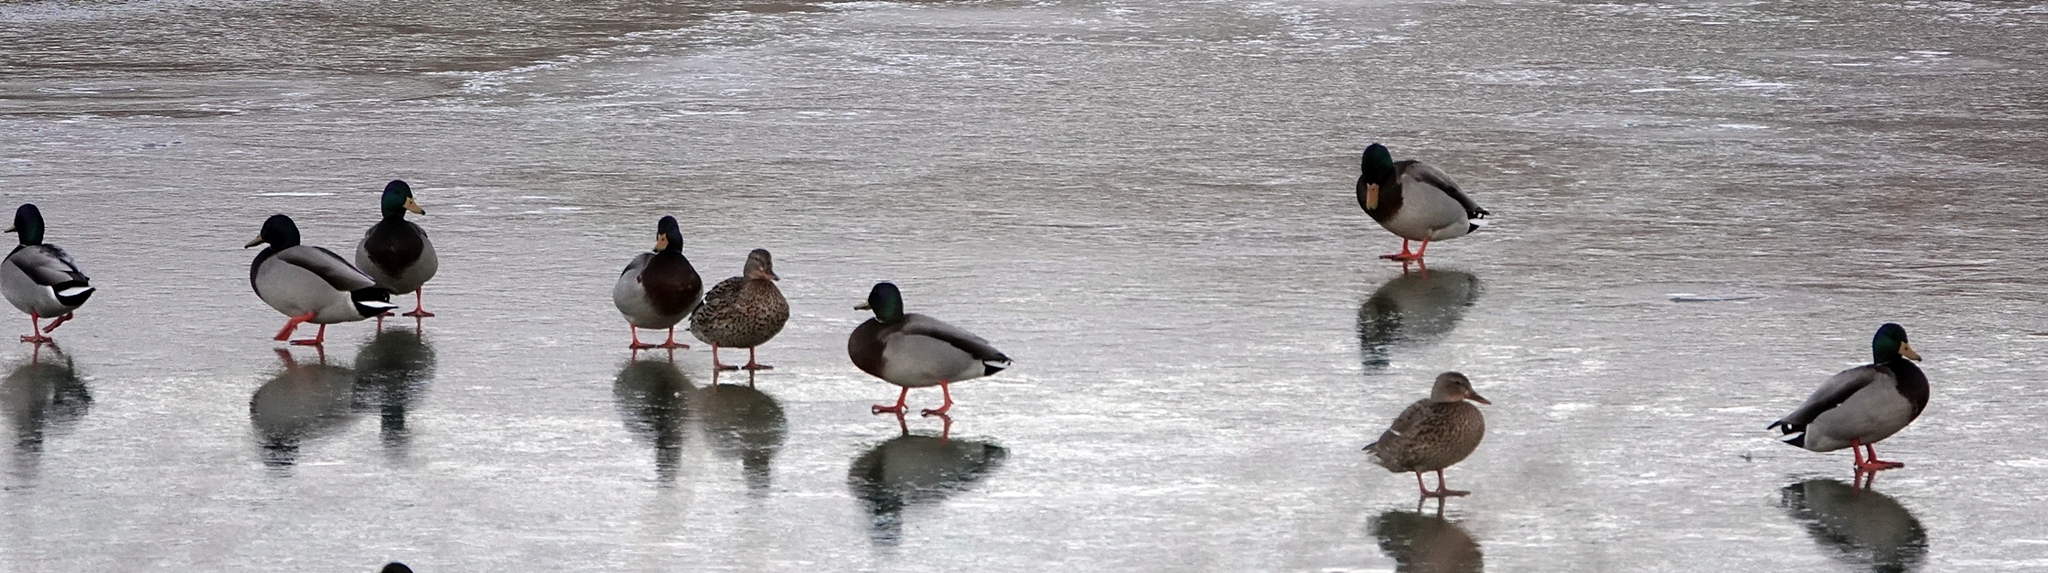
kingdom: Animalia
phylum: Chordata
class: Aves
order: Anseriformes
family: Anatidae
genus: Anas
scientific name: Anas platyrhynchos
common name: Mallard
